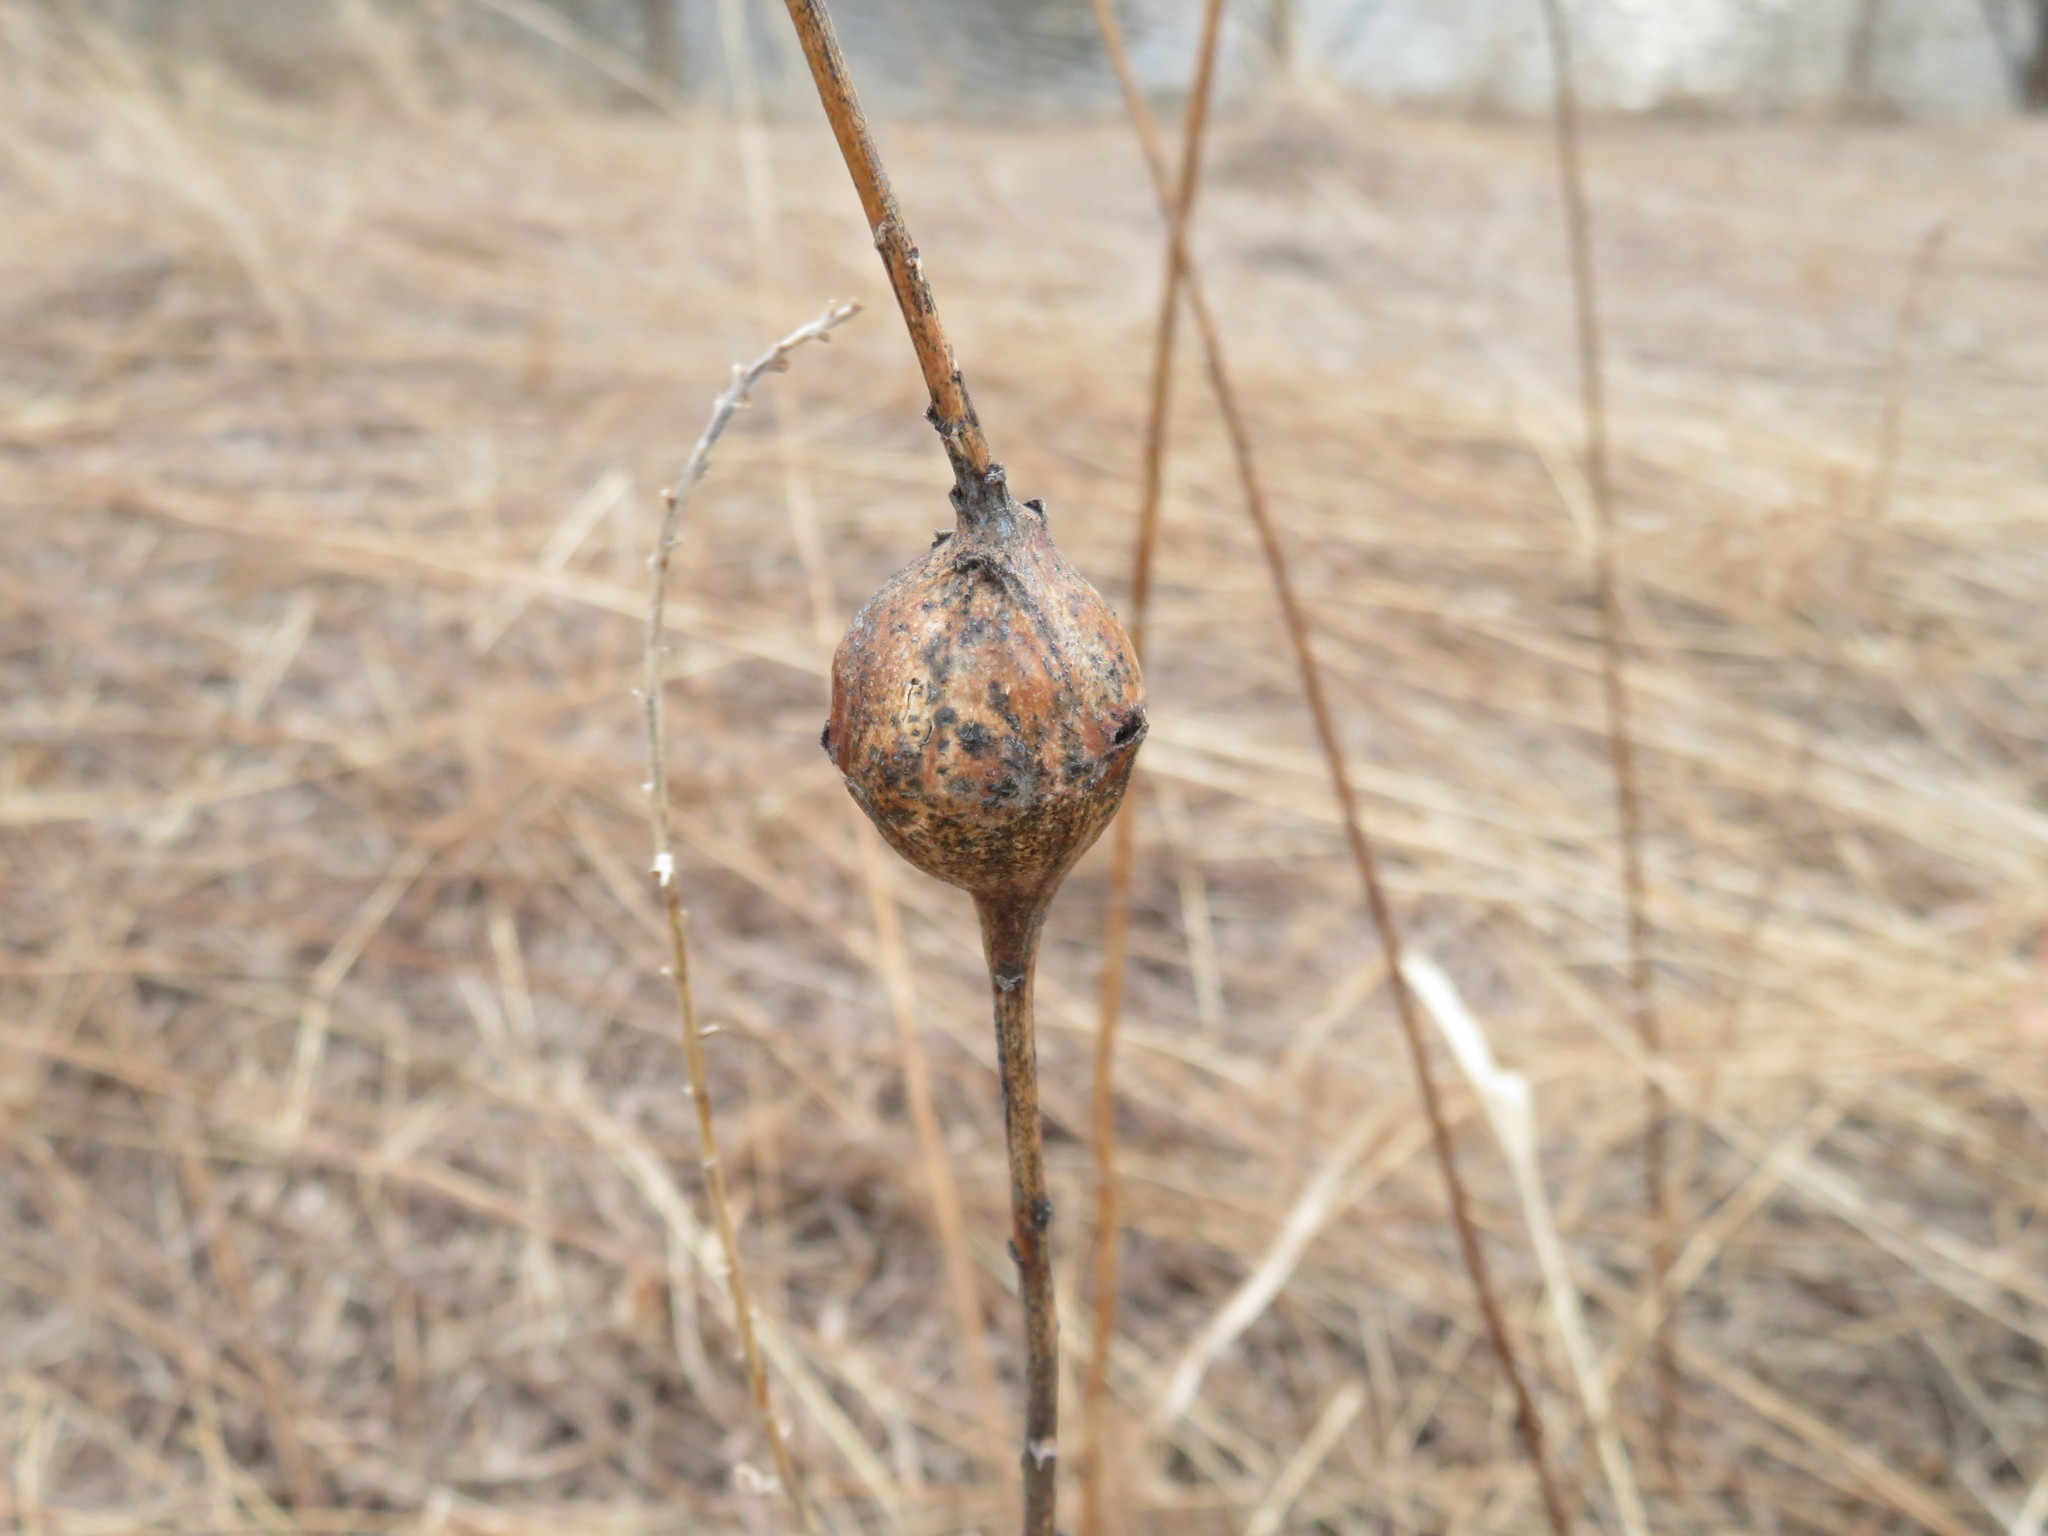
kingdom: Animalia
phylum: Arthropoda
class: Insecta
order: Diptera
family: Tephritidae
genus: Eurosta
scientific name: Eurosta solidaginis
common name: Goldenrod gall fly
